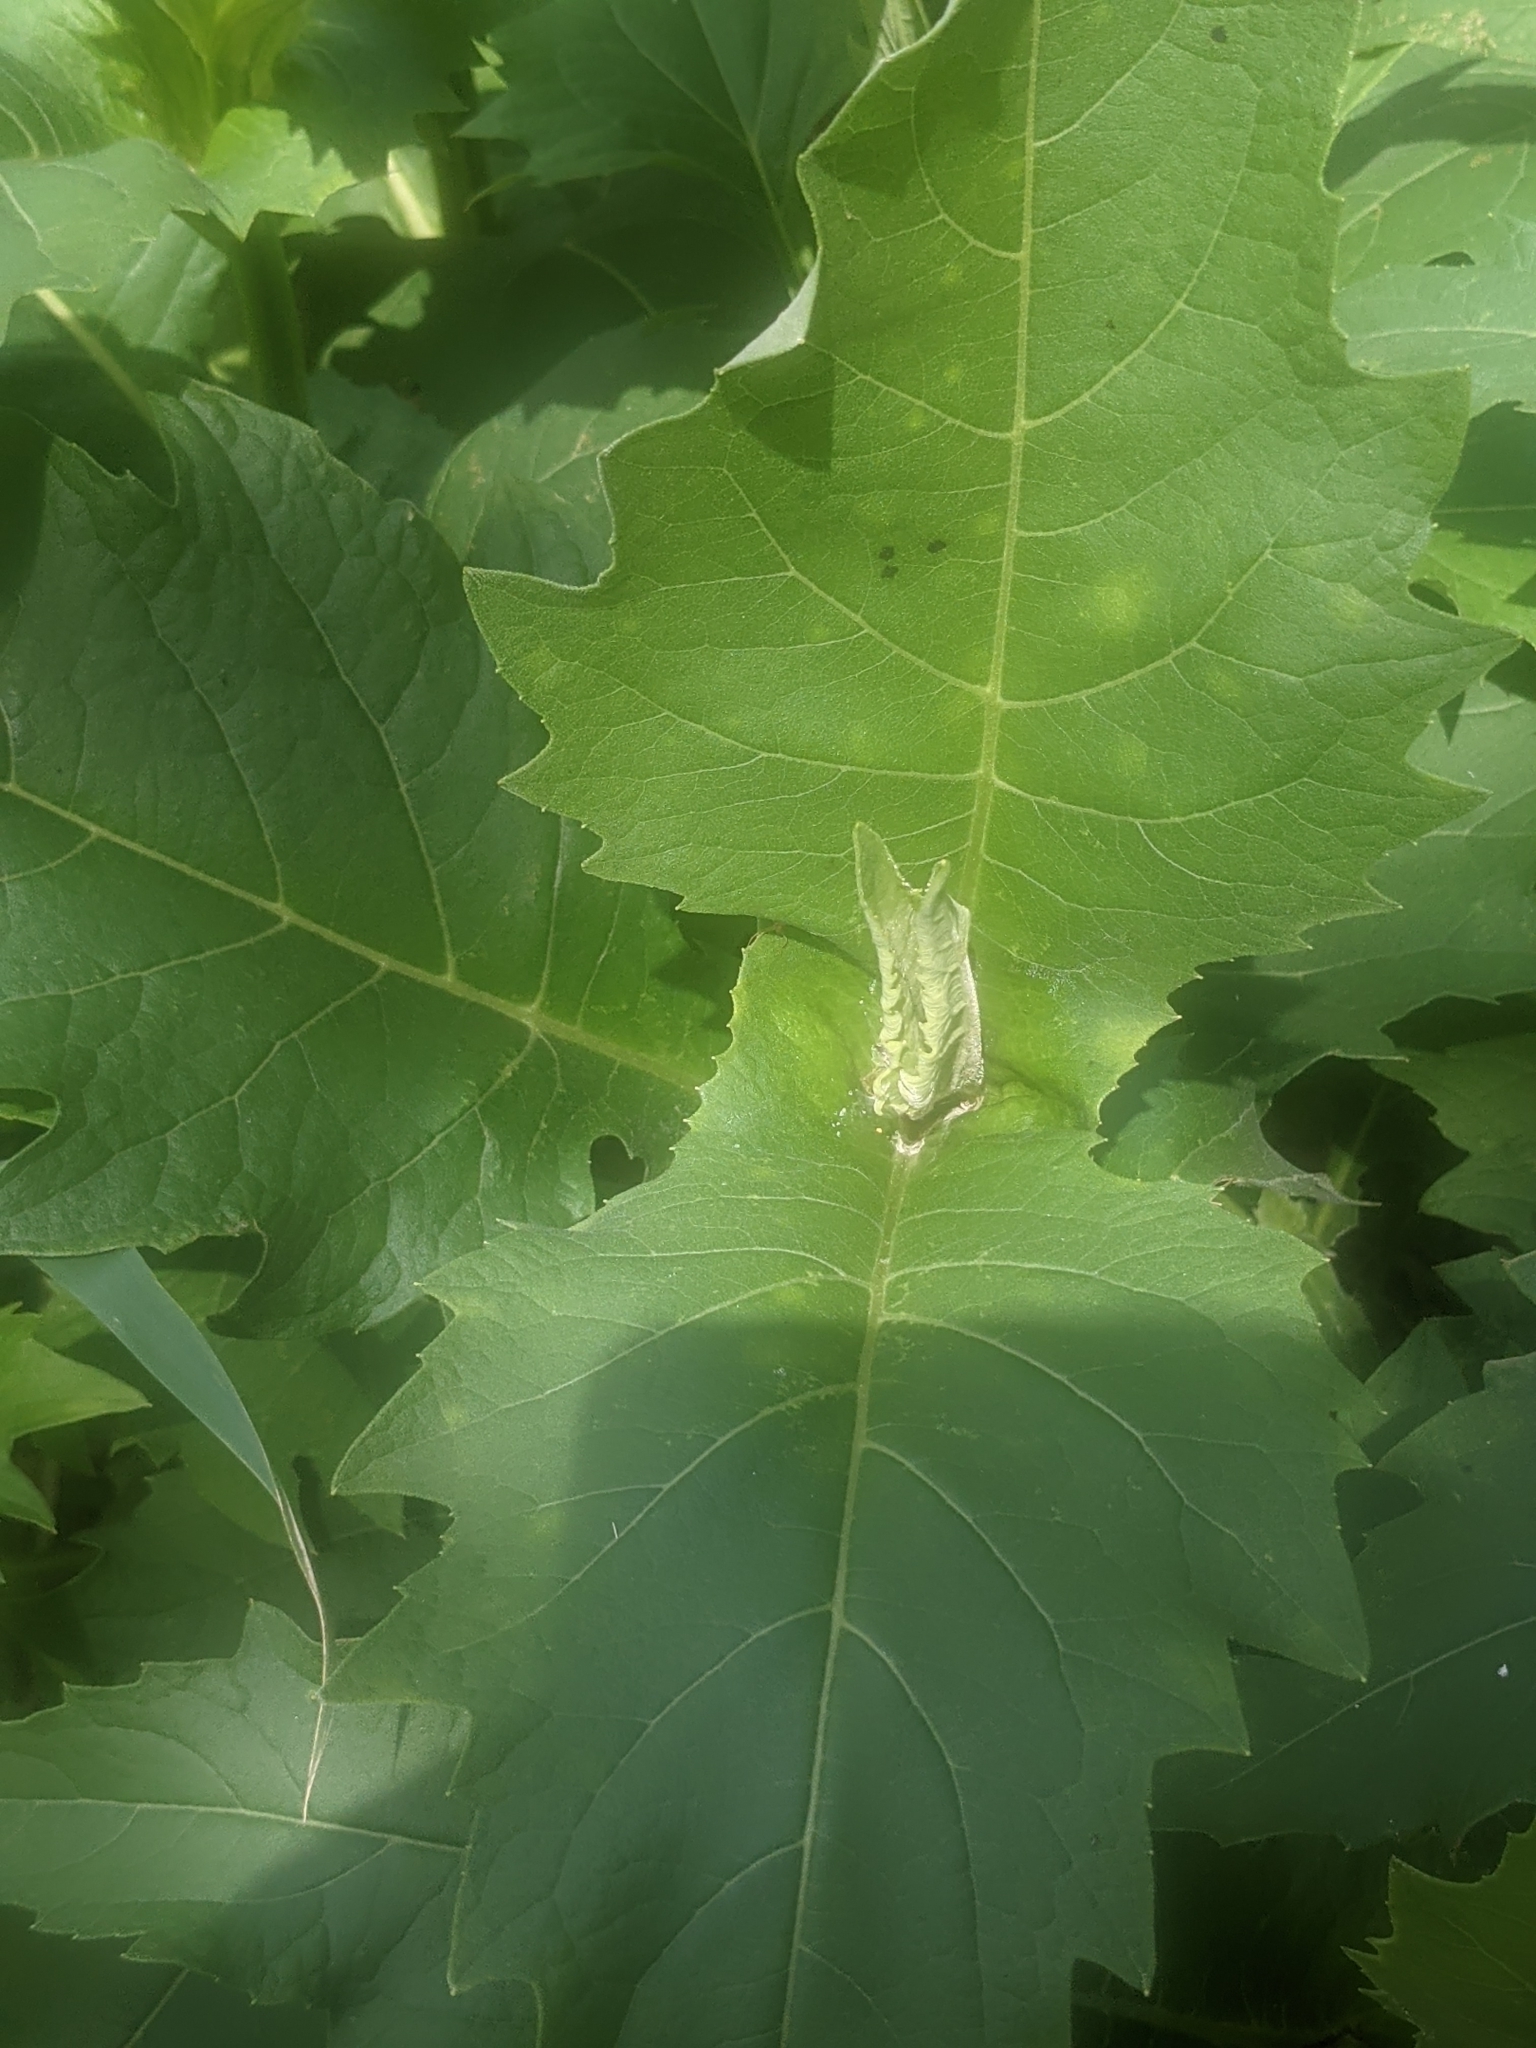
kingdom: Plantae
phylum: Tracheophyta
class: Magnoliopsida
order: Asterales
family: Asteraceae
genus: Silphium
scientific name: Silphium perfoliatum
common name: Cup-plant
